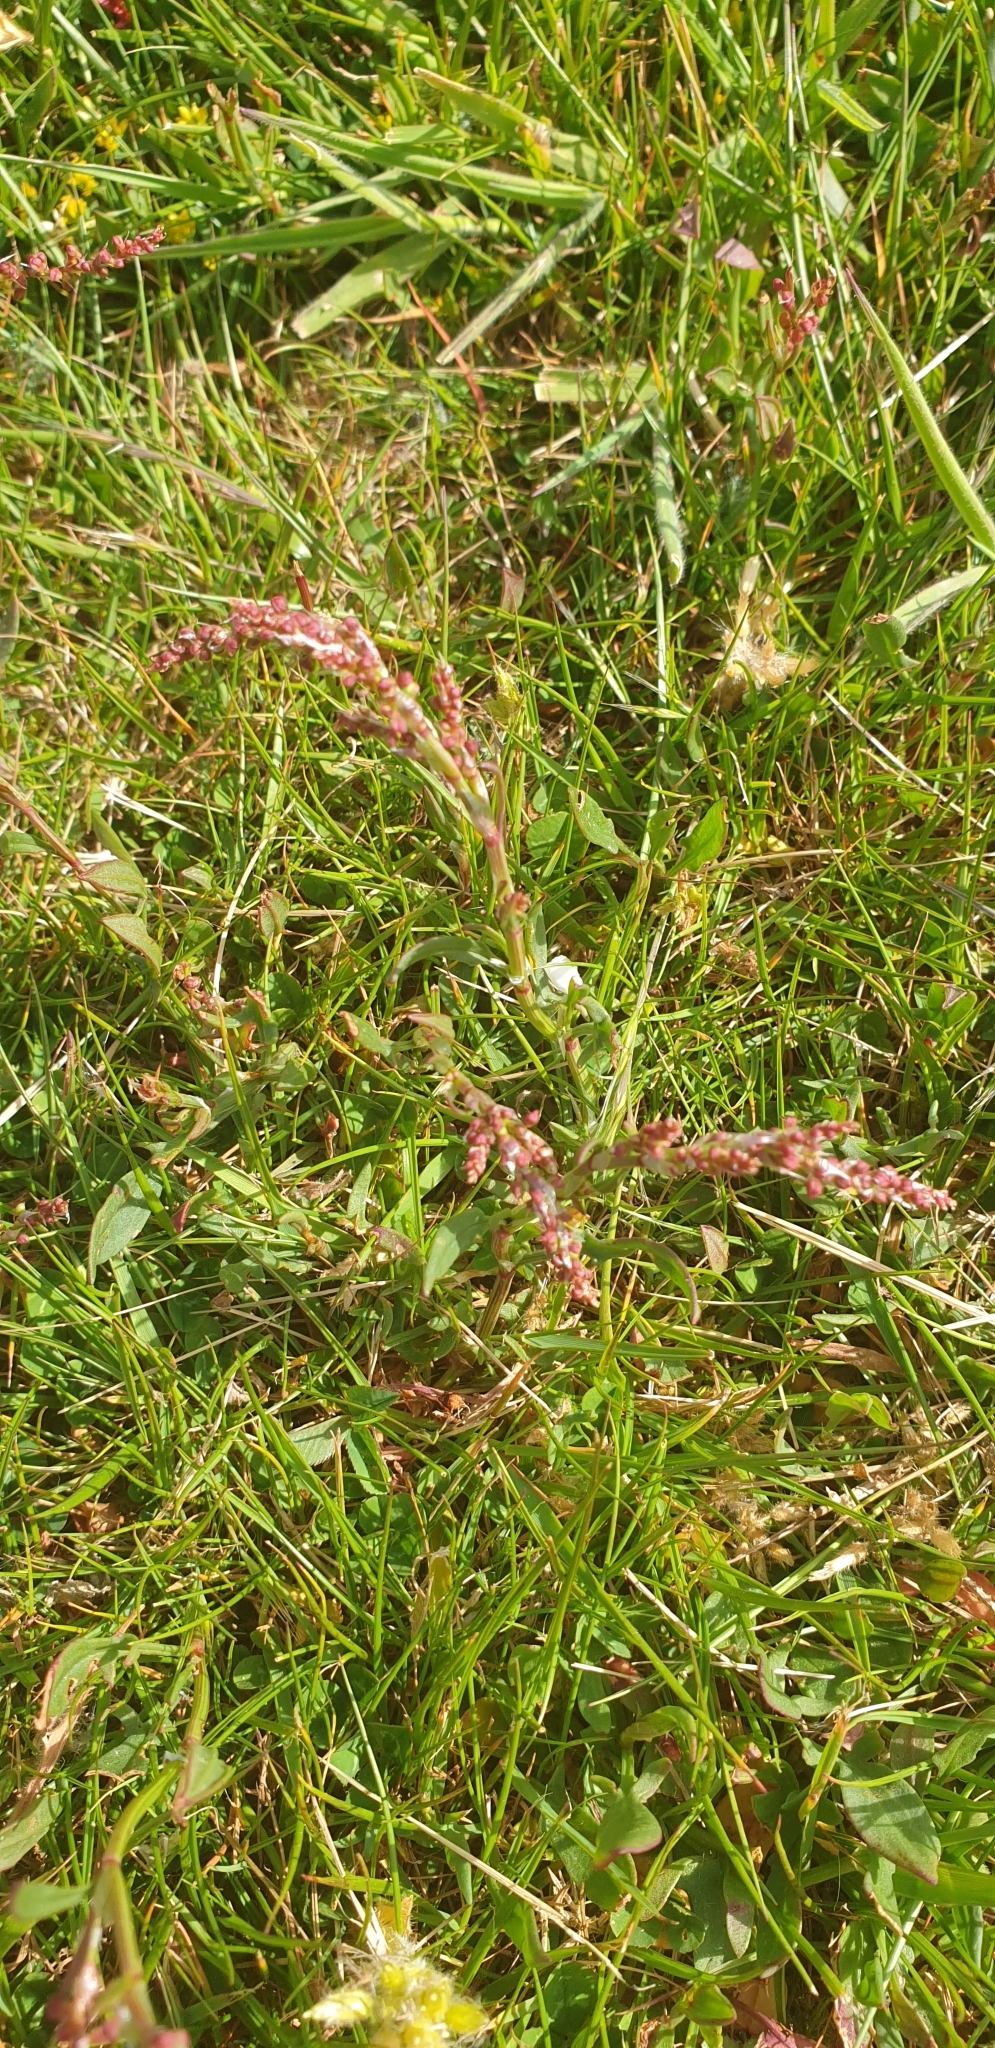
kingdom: Plantae
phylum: Tracheophyta
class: Magnoliopsida
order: Caryophyllales
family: Polygonaceae
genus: Rumex
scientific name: Rumex acetosella
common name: Common sheep sorrel
